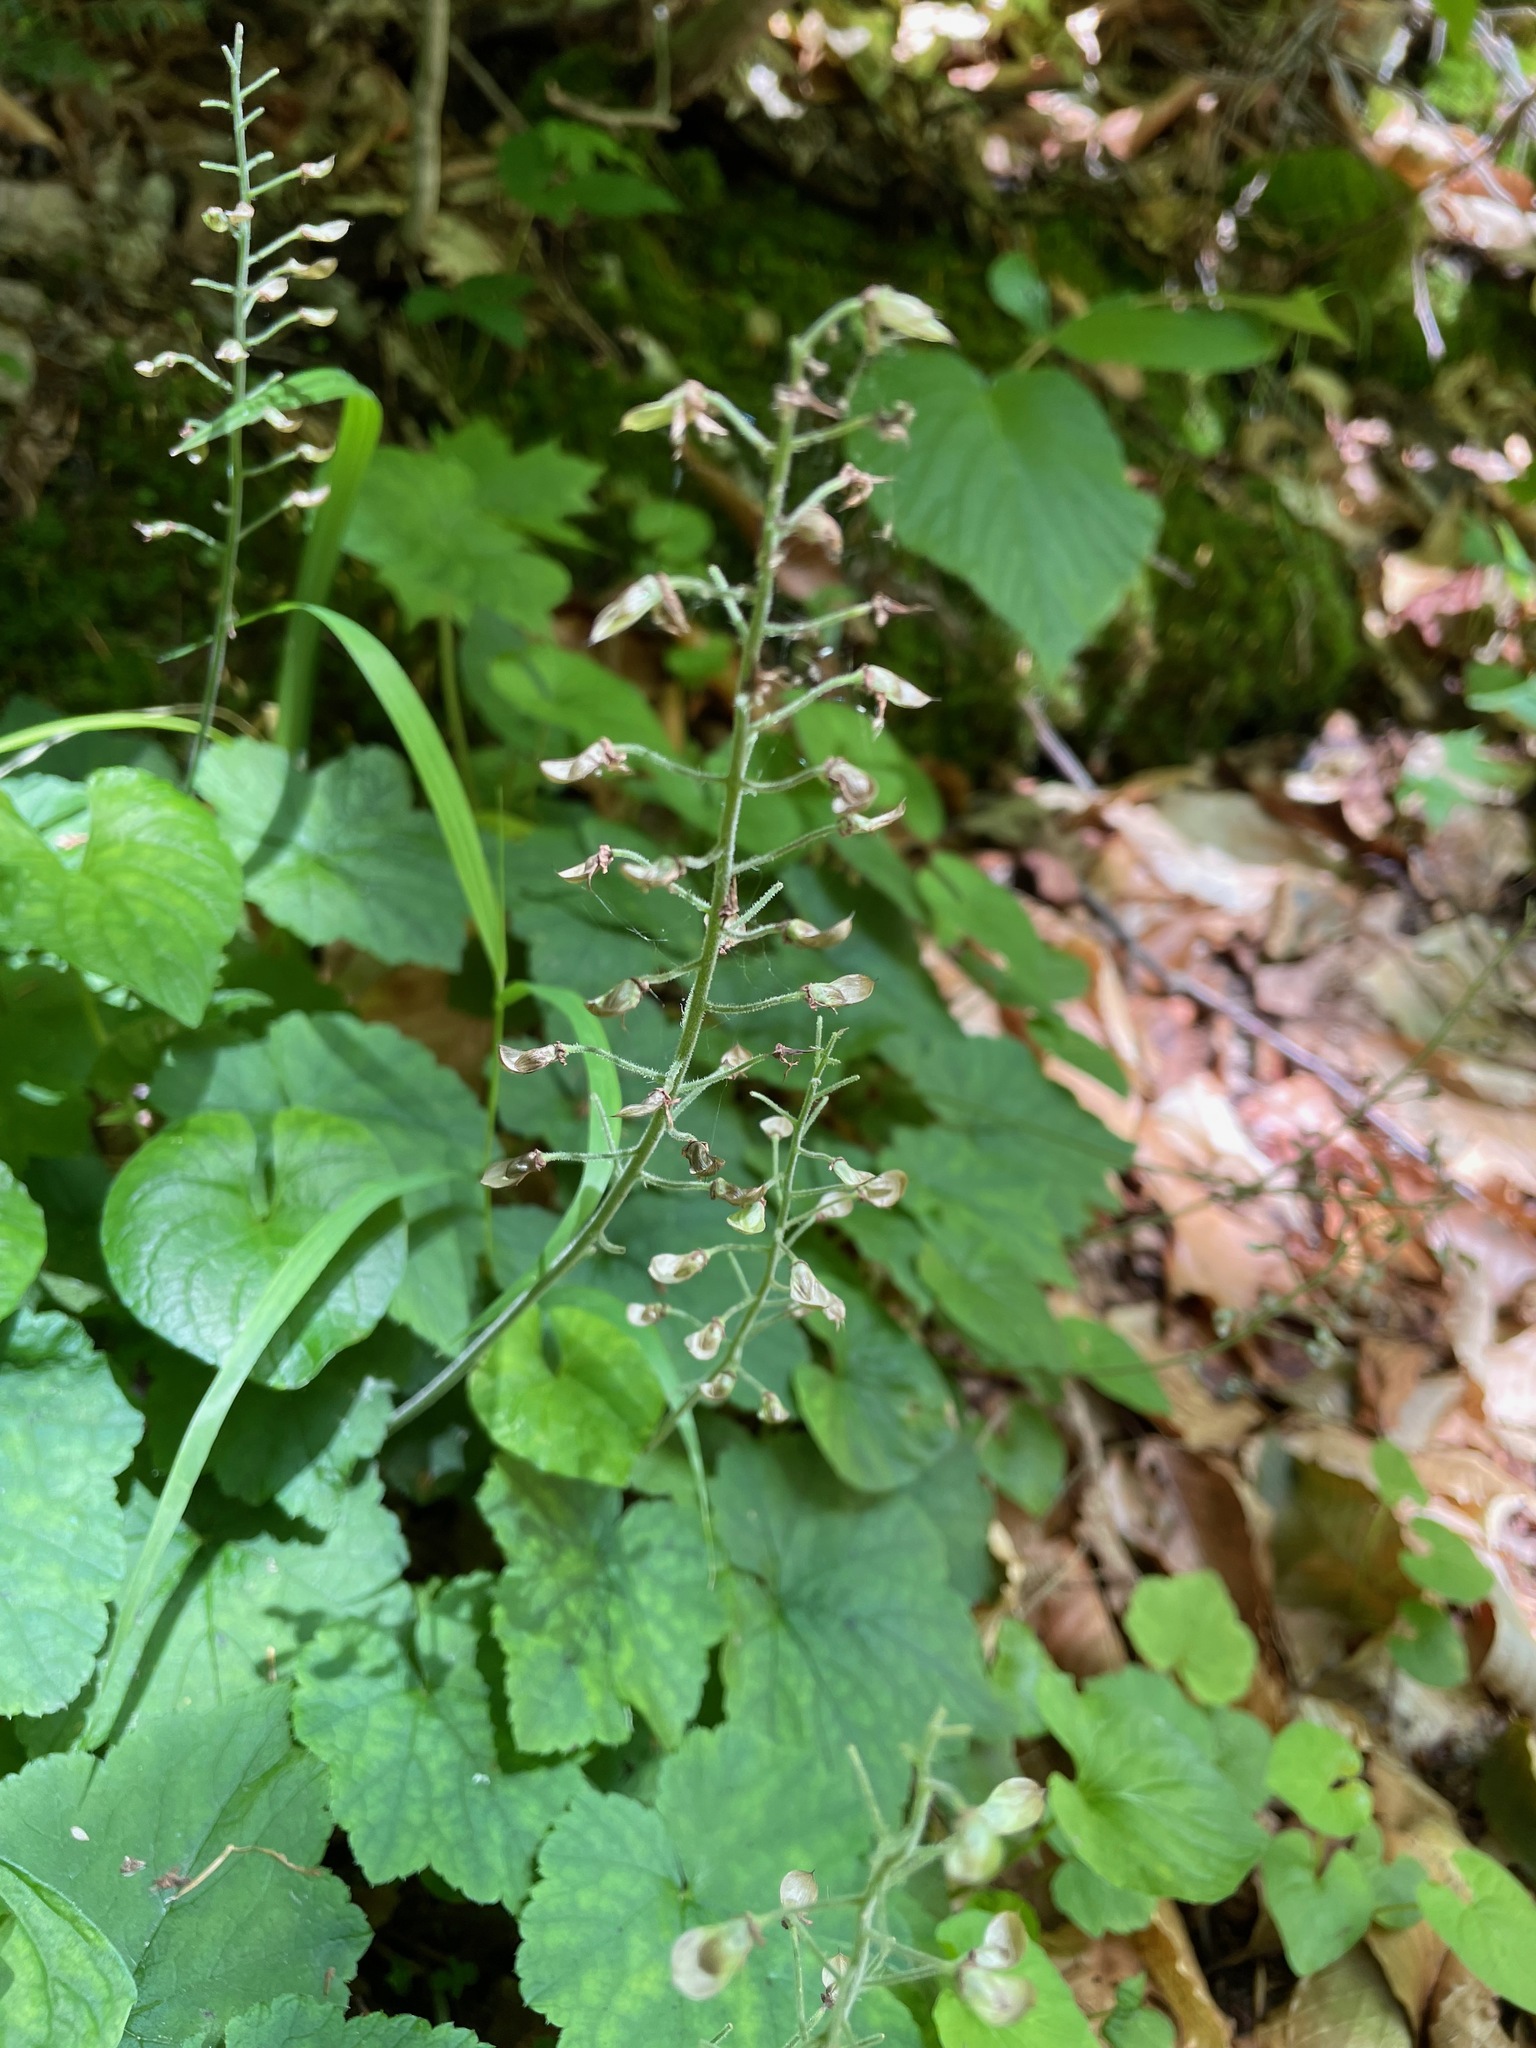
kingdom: Plantae
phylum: Tracheophyta
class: Magnoliopsida
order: Saxifragales
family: Saxifragaceae
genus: Tiarella
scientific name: Tiarella stolonifera
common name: Stoloniferous foamflower
